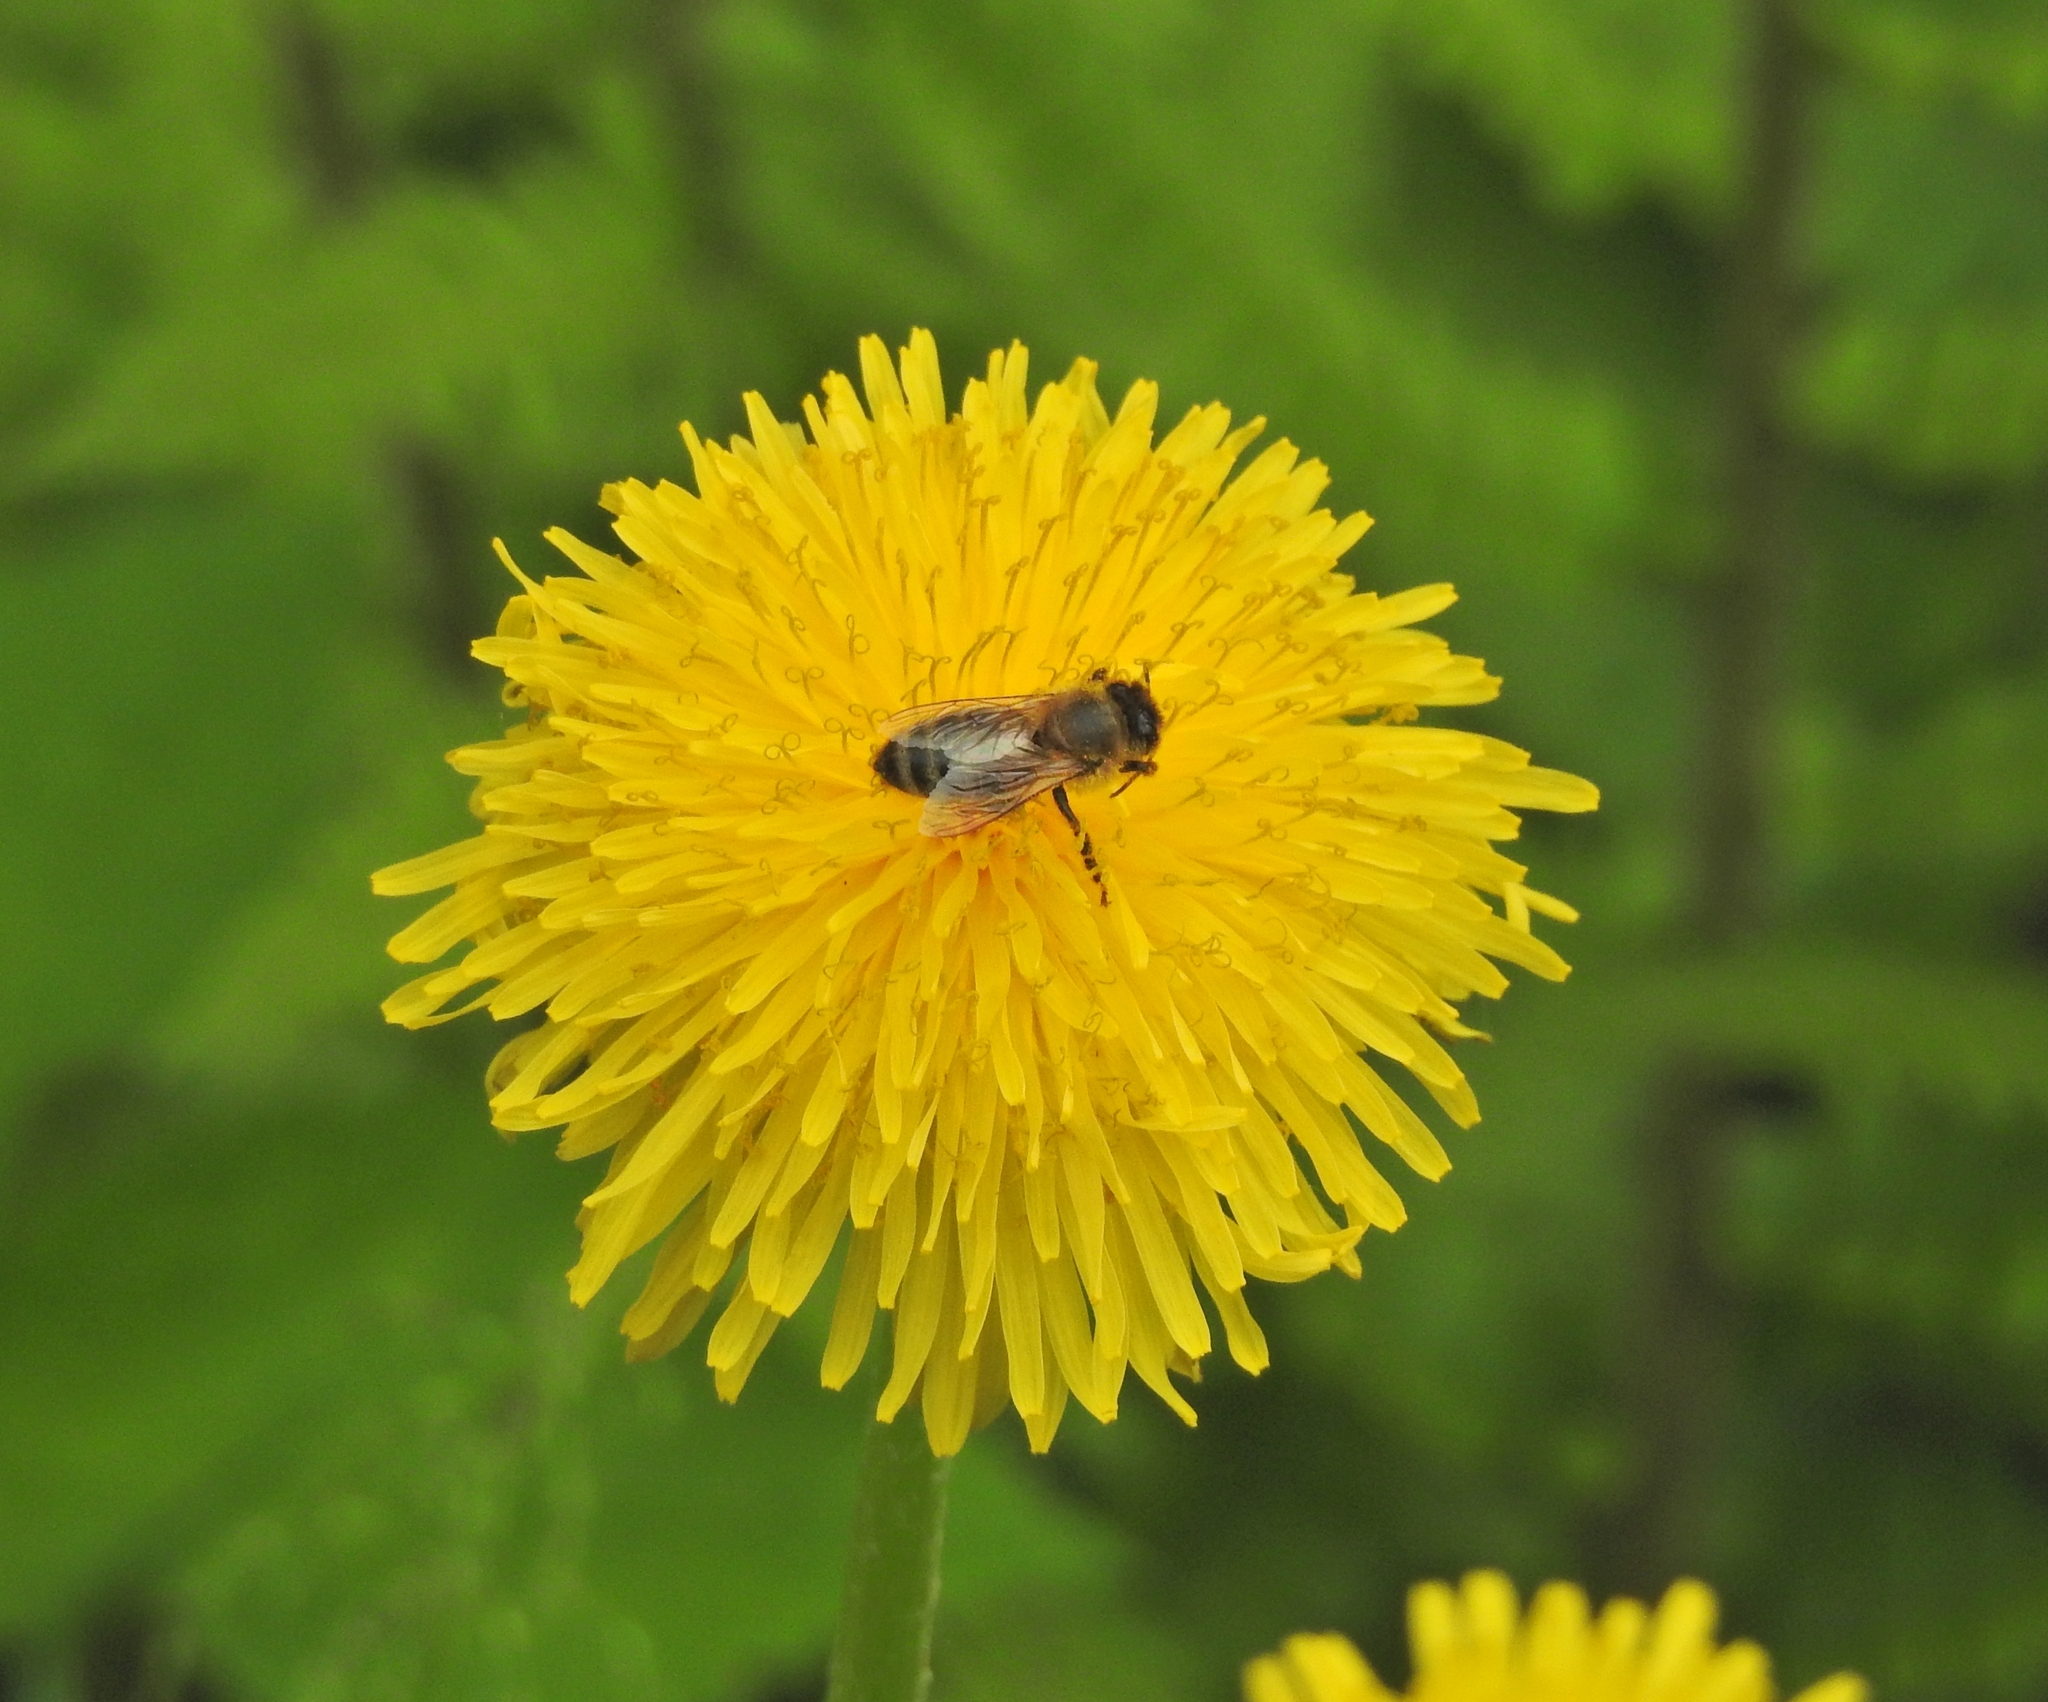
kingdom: Animalia
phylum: Arthropoda
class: Insecta
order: Hymenoptera
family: Apidae
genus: Apis
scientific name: Apis mellifera
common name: Honey bee
